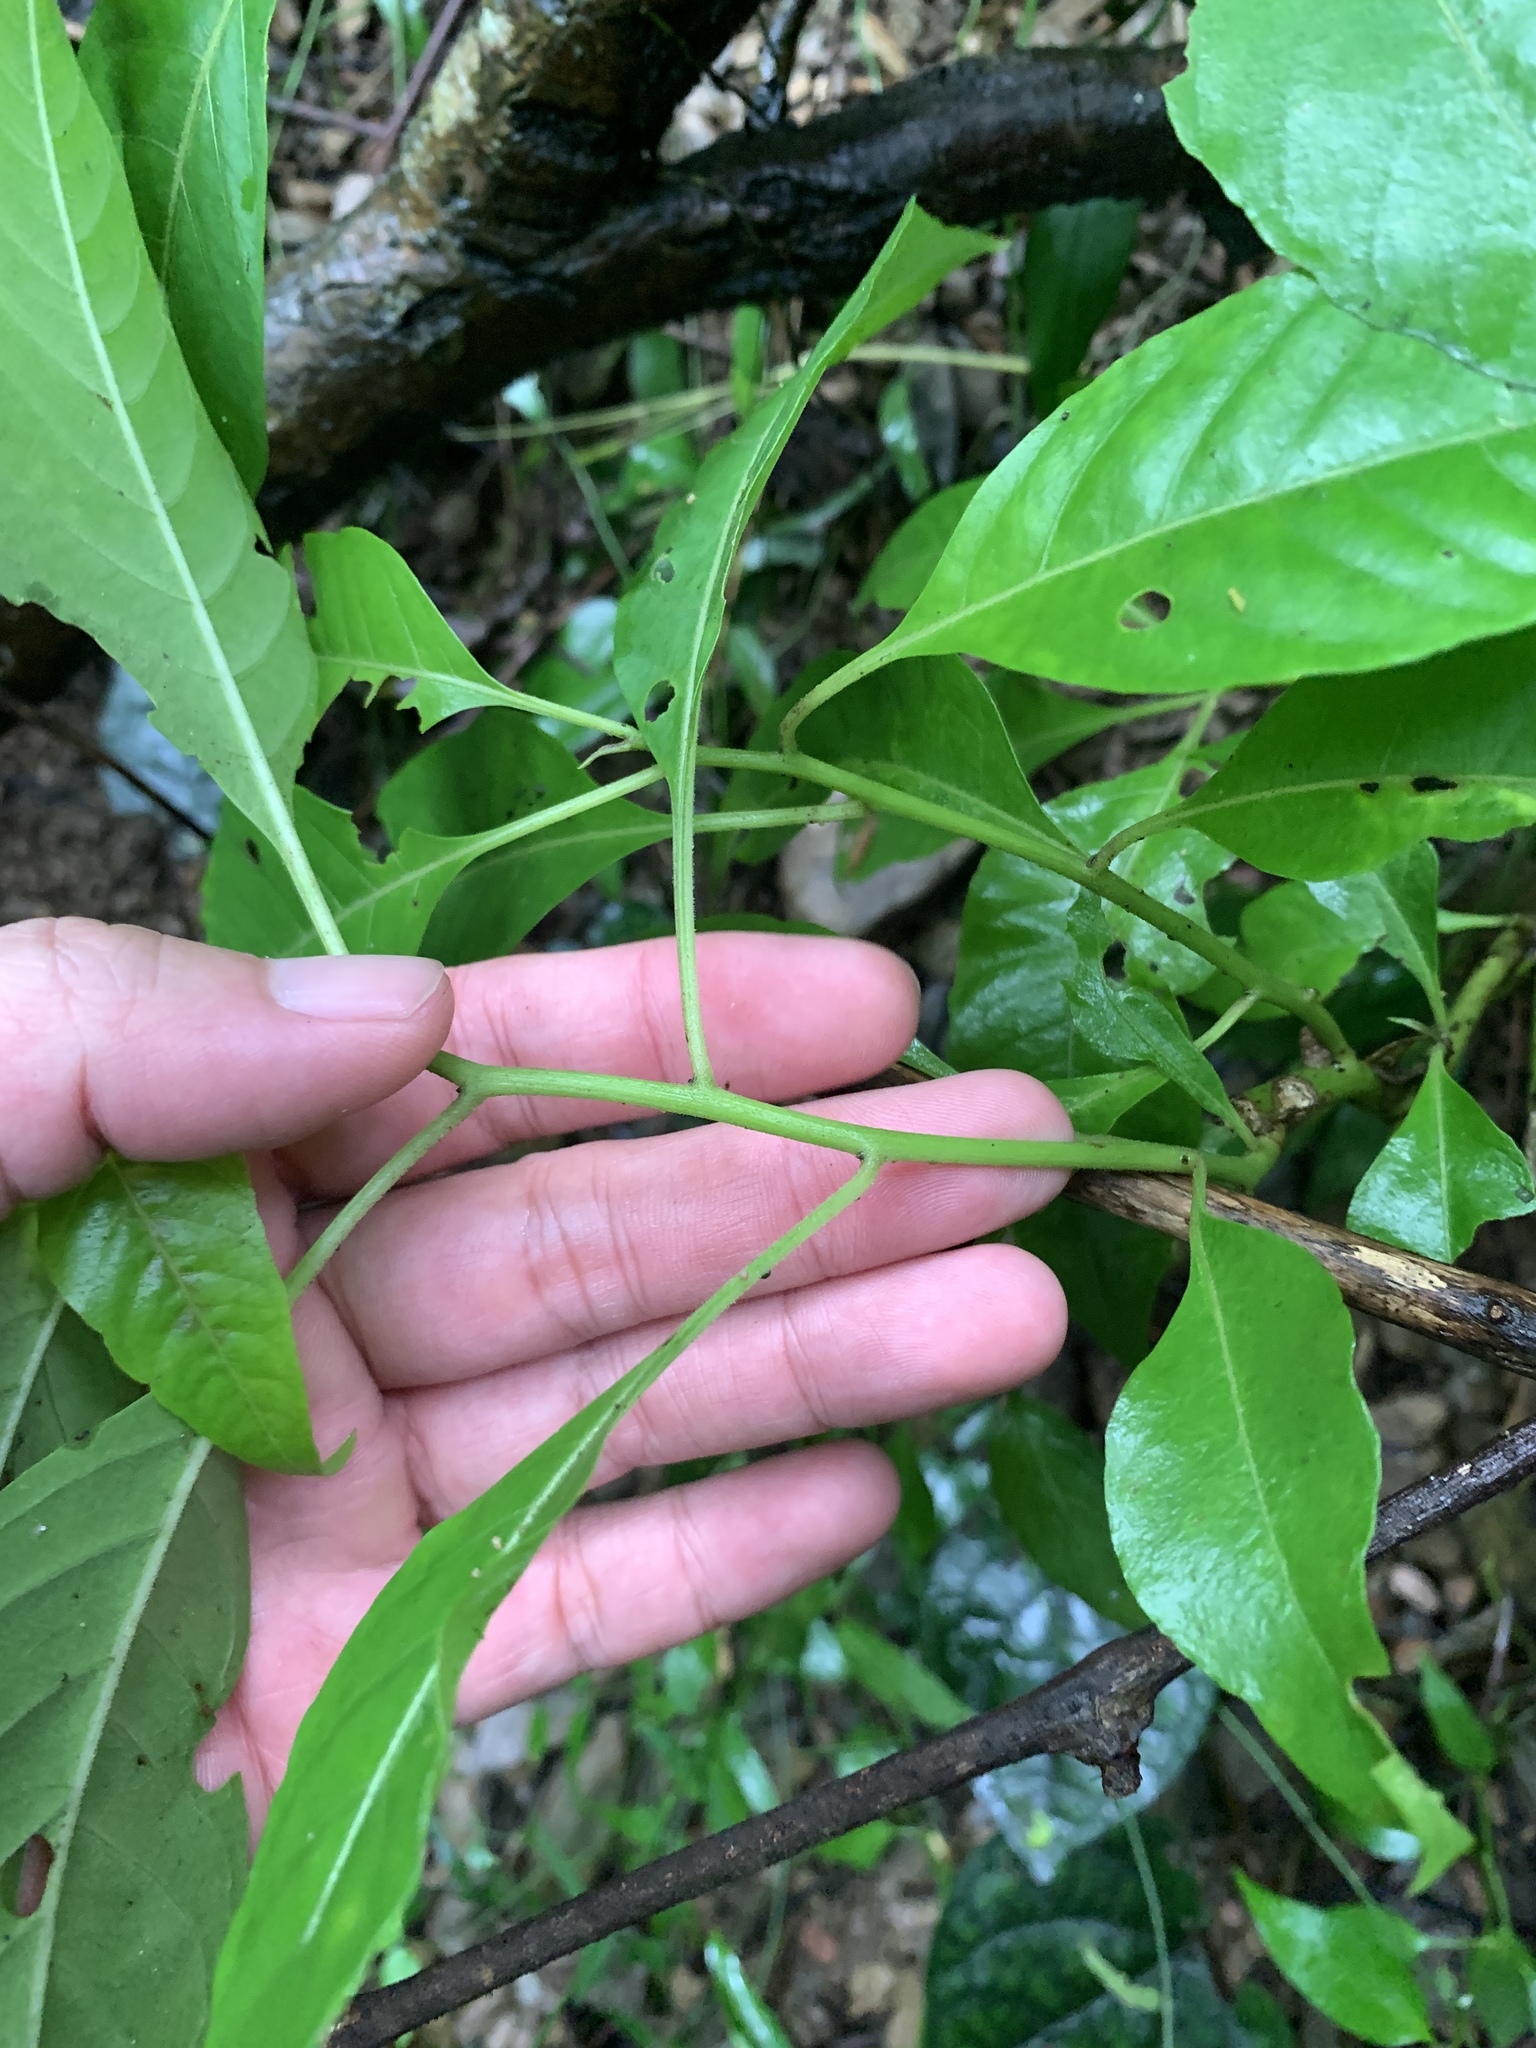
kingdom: Plantae
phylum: Tracheophyta
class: Magnoliopsida
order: Caryophyllales
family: Amaranthaceae
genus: Deeringia
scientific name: Deeringia polysperma
